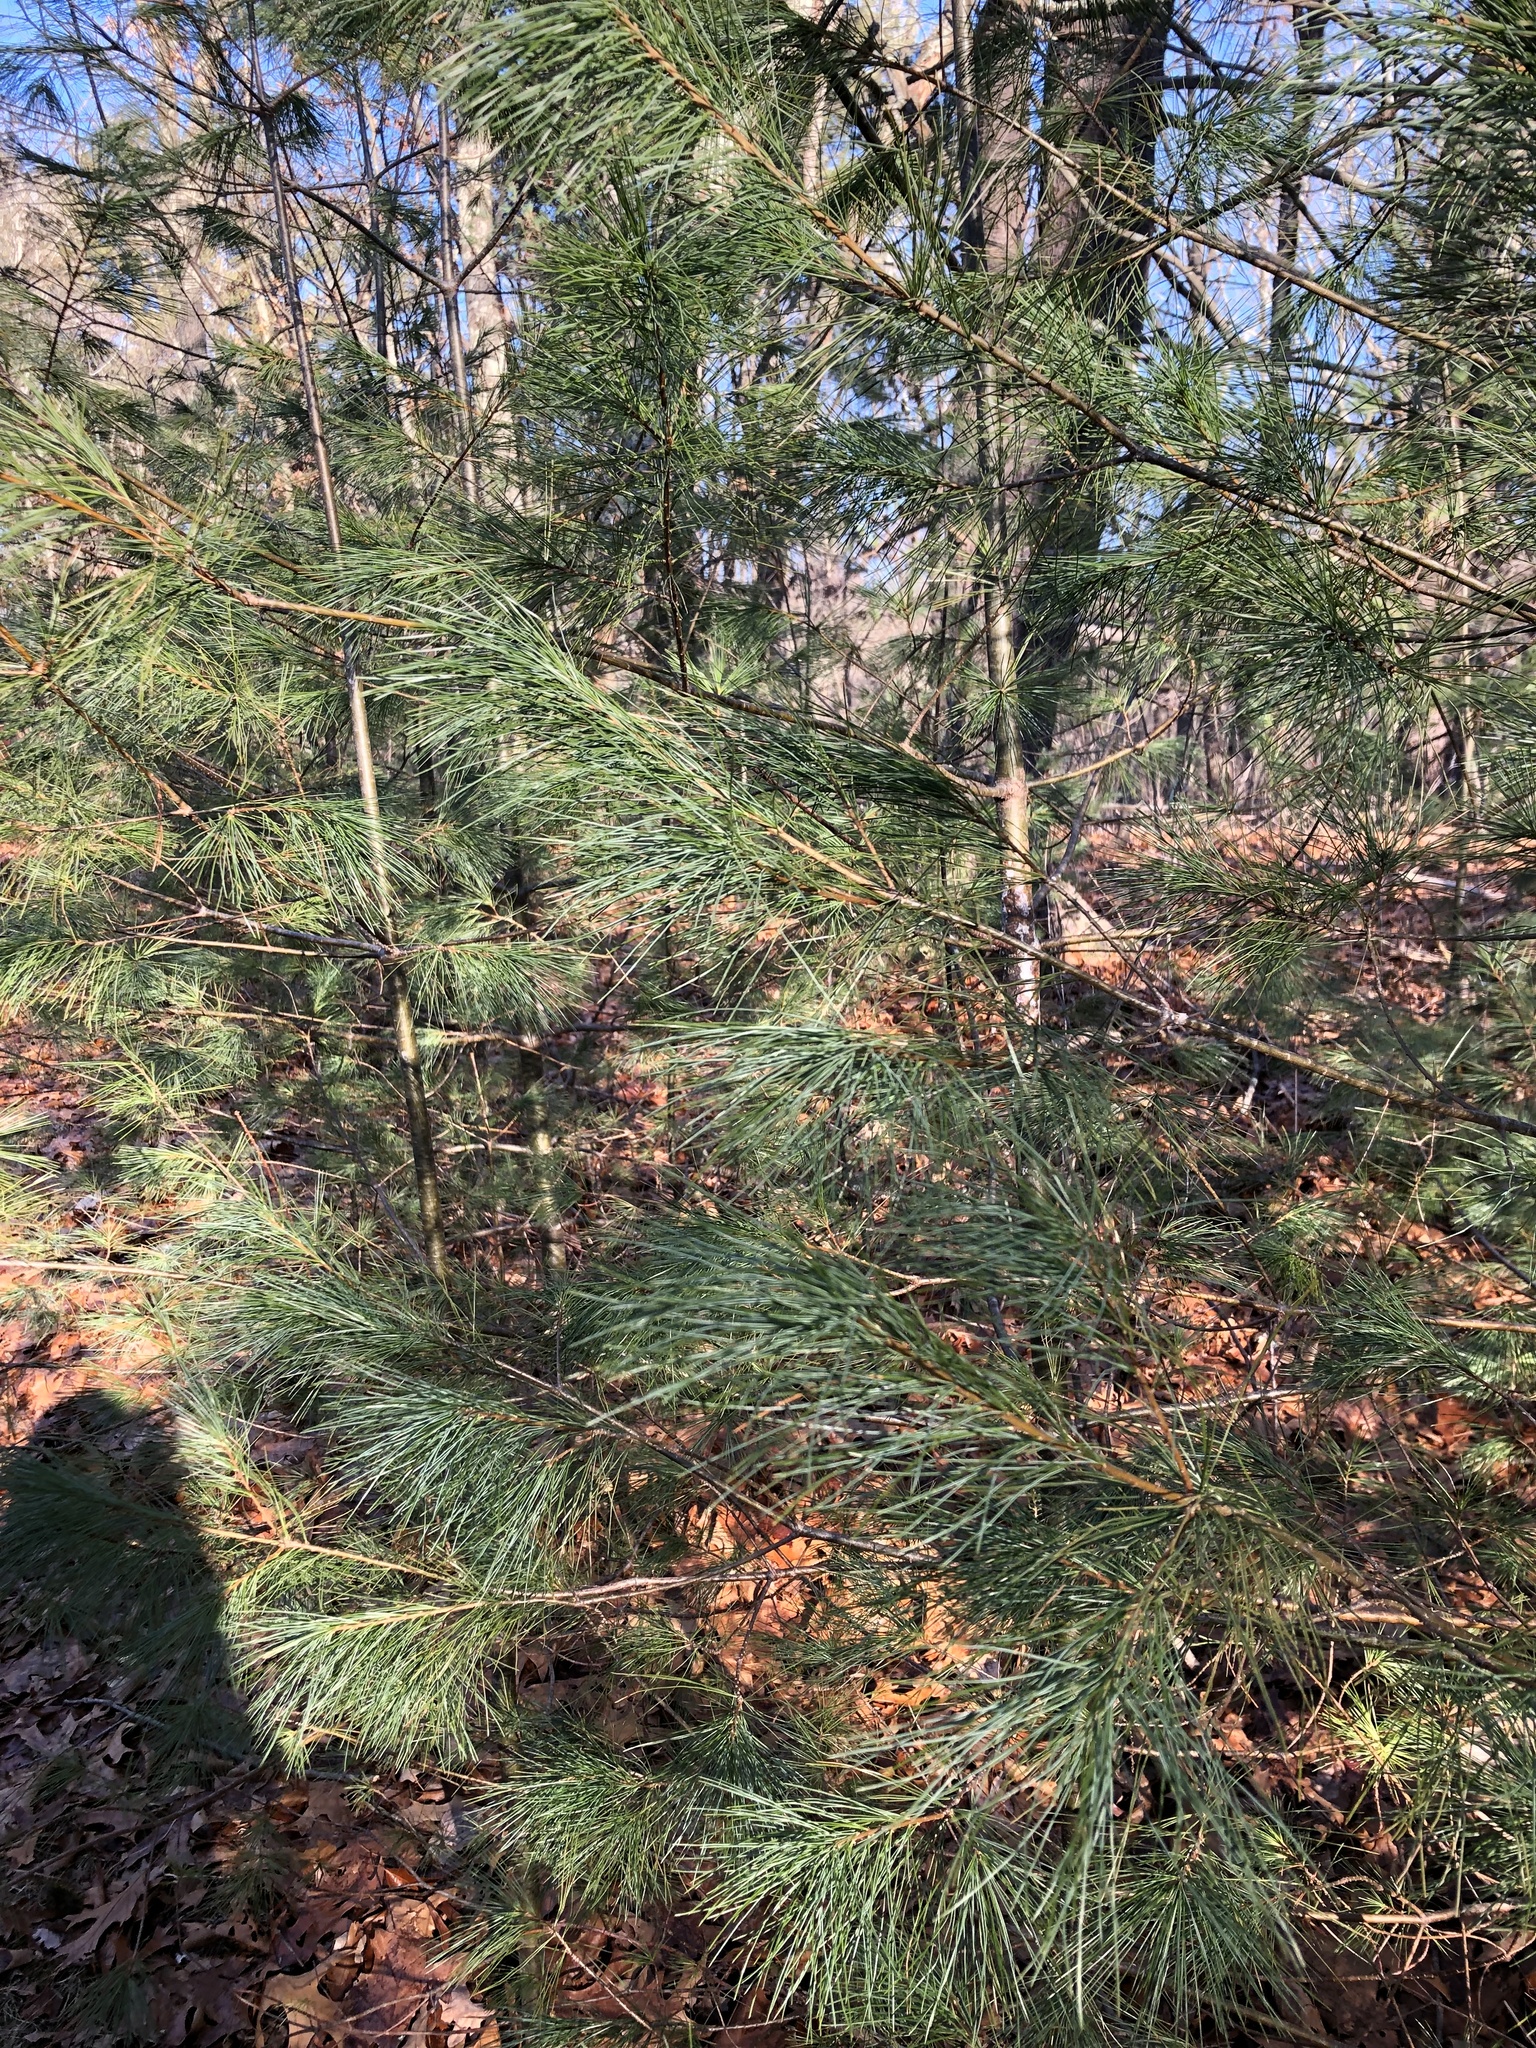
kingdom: Plantae
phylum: Tracheophyta
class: Pinopsida
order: Pinales
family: Pinaceae
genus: Pinus
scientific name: Pinus strobus
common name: Weymouth pine
